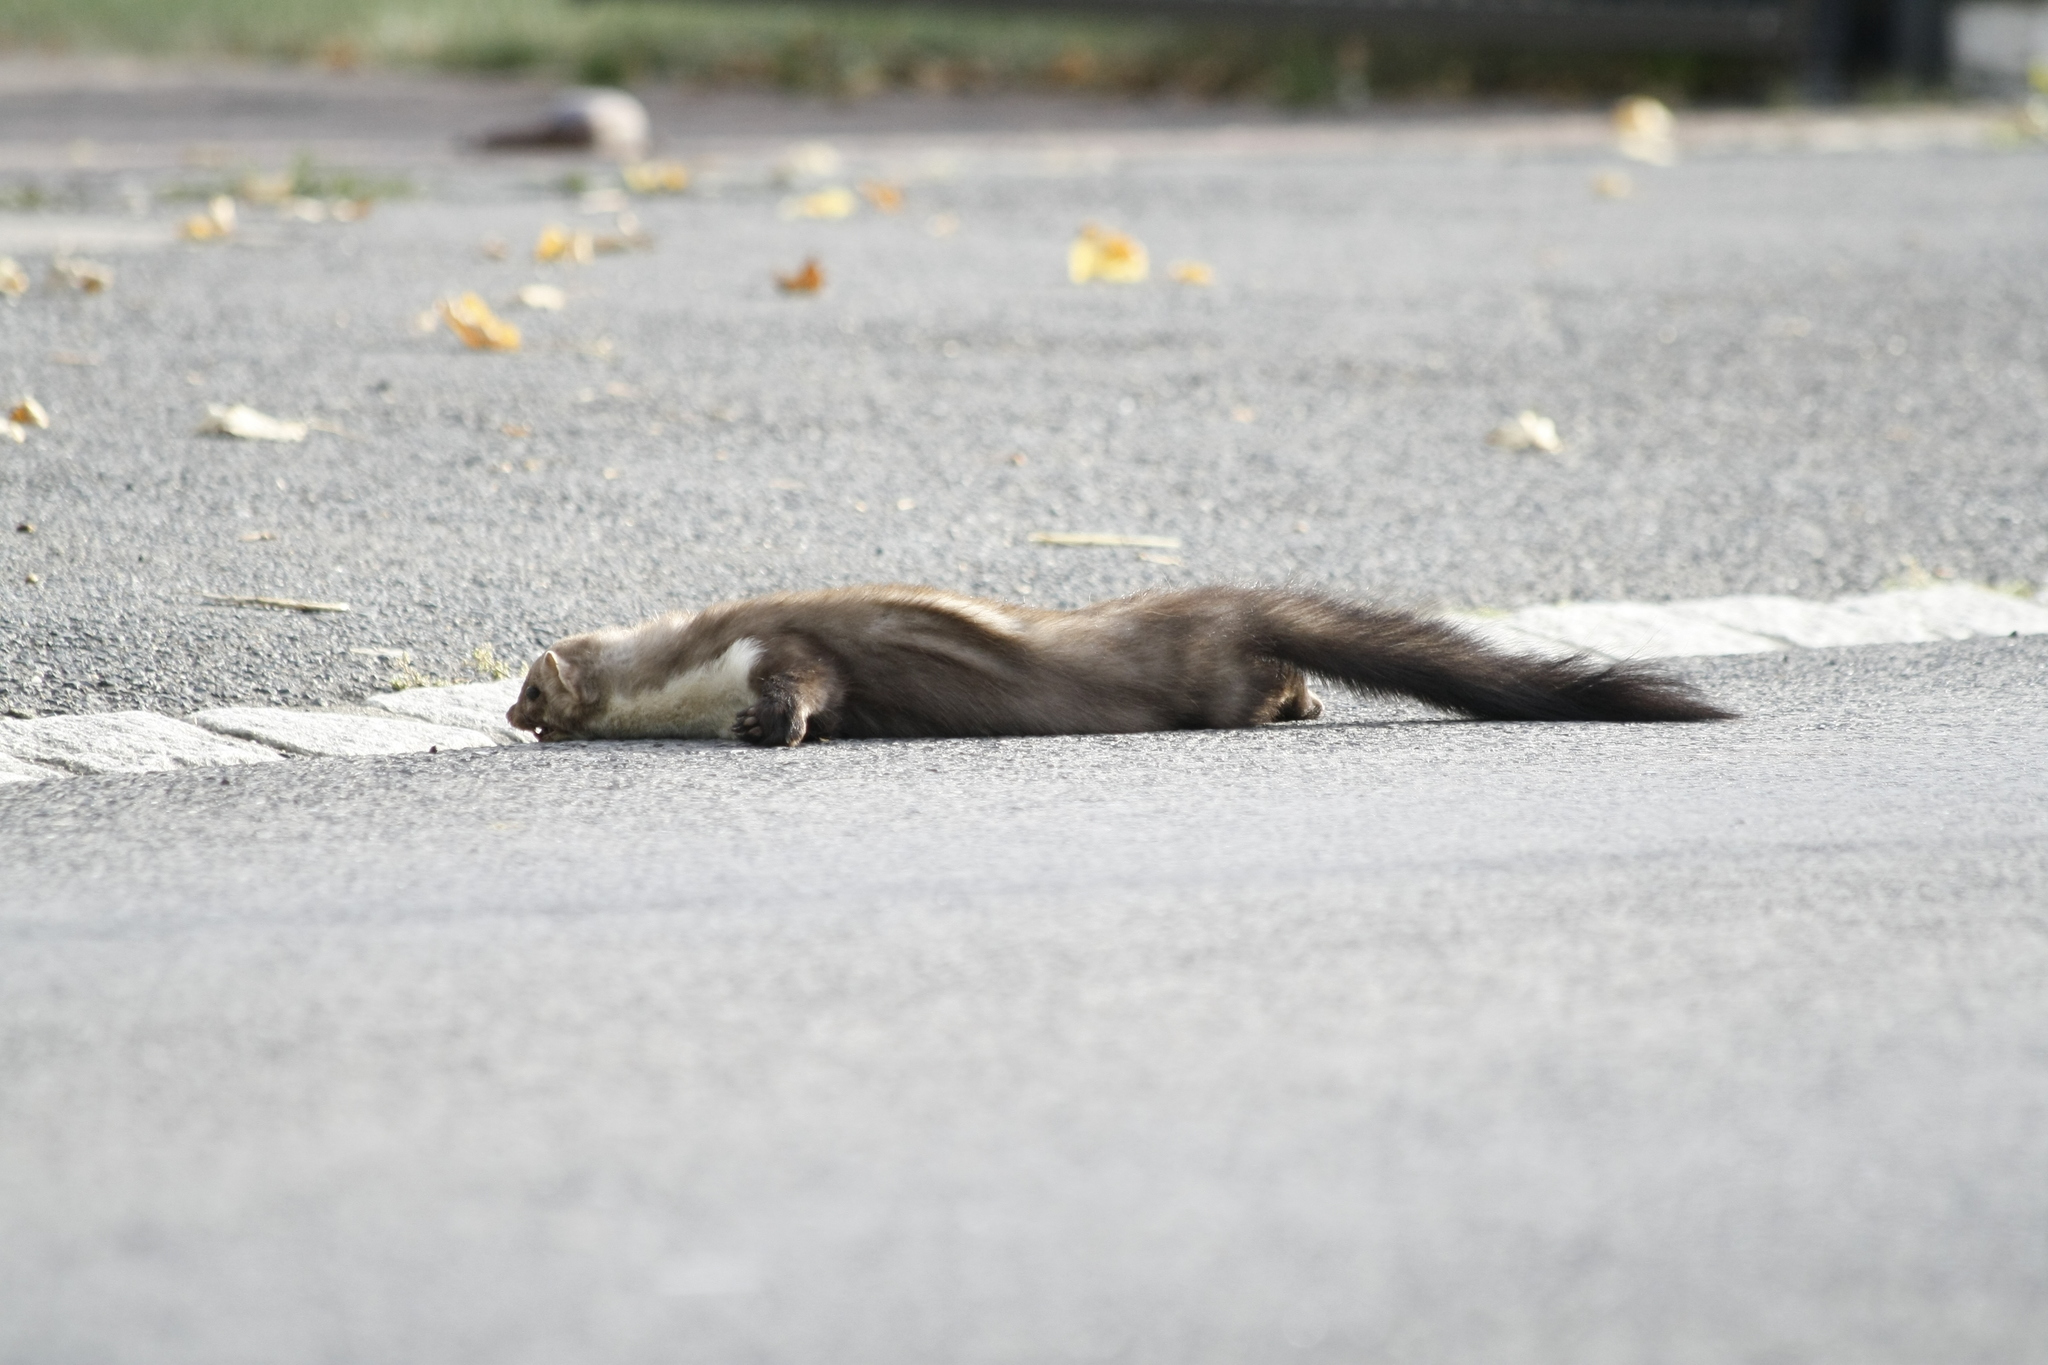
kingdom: Animalia
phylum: Chordata
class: Mammalia
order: Carnivora
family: Mustelidae
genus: Martes
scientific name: Martes foina
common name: Beech marten
